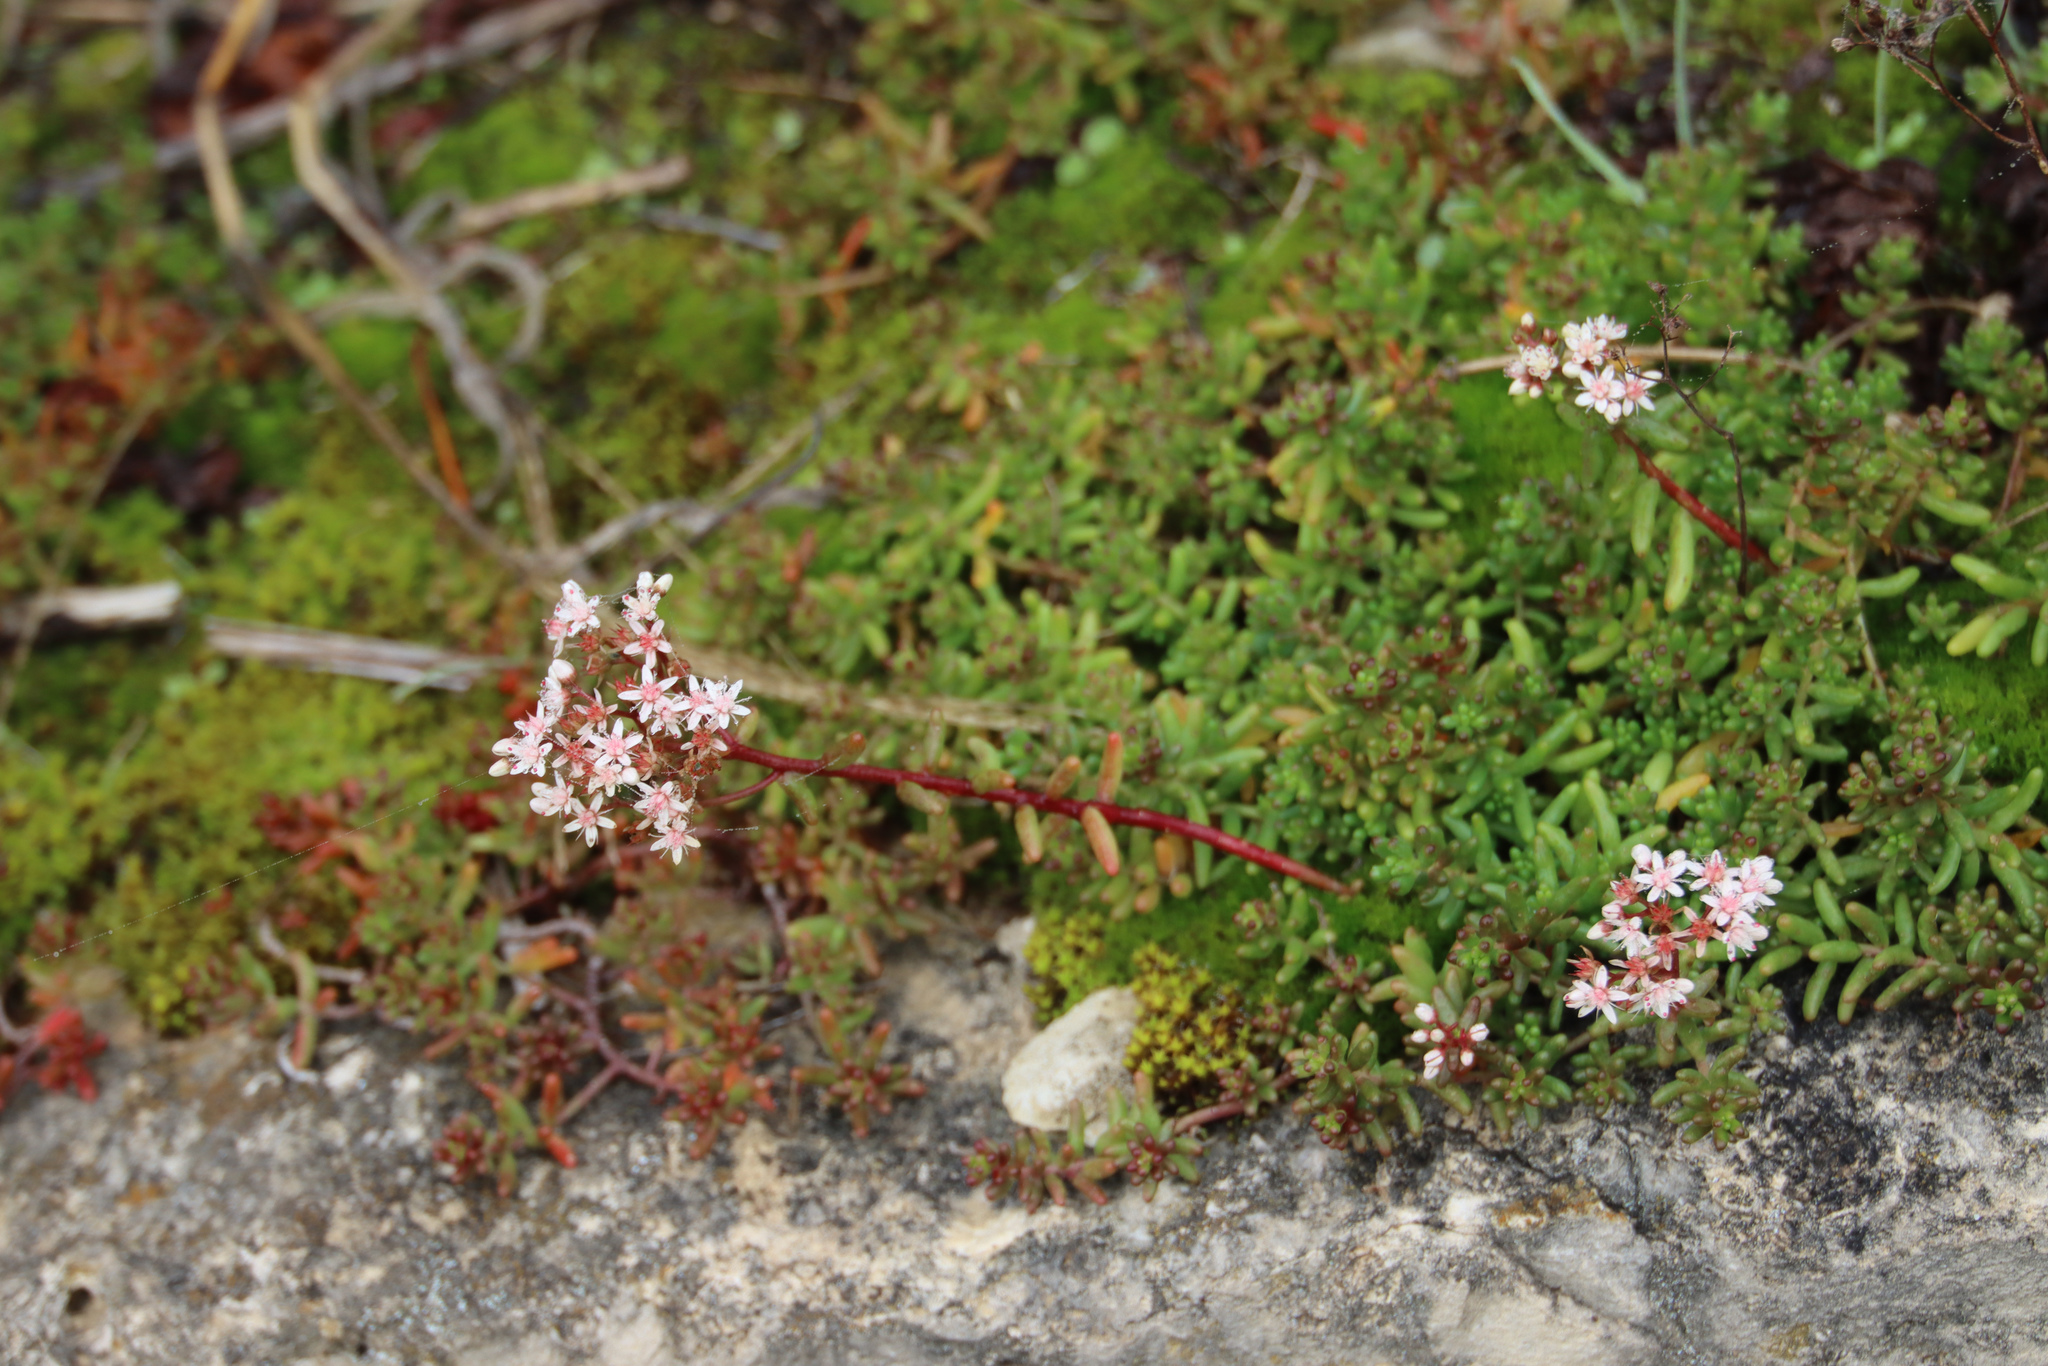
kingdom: Plantae
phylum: Tracheophyta
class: Magnoliopsida
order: Saxifragales
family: Crassulaceae
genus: Sedum
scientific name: Sedum album
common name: White stonecrop
